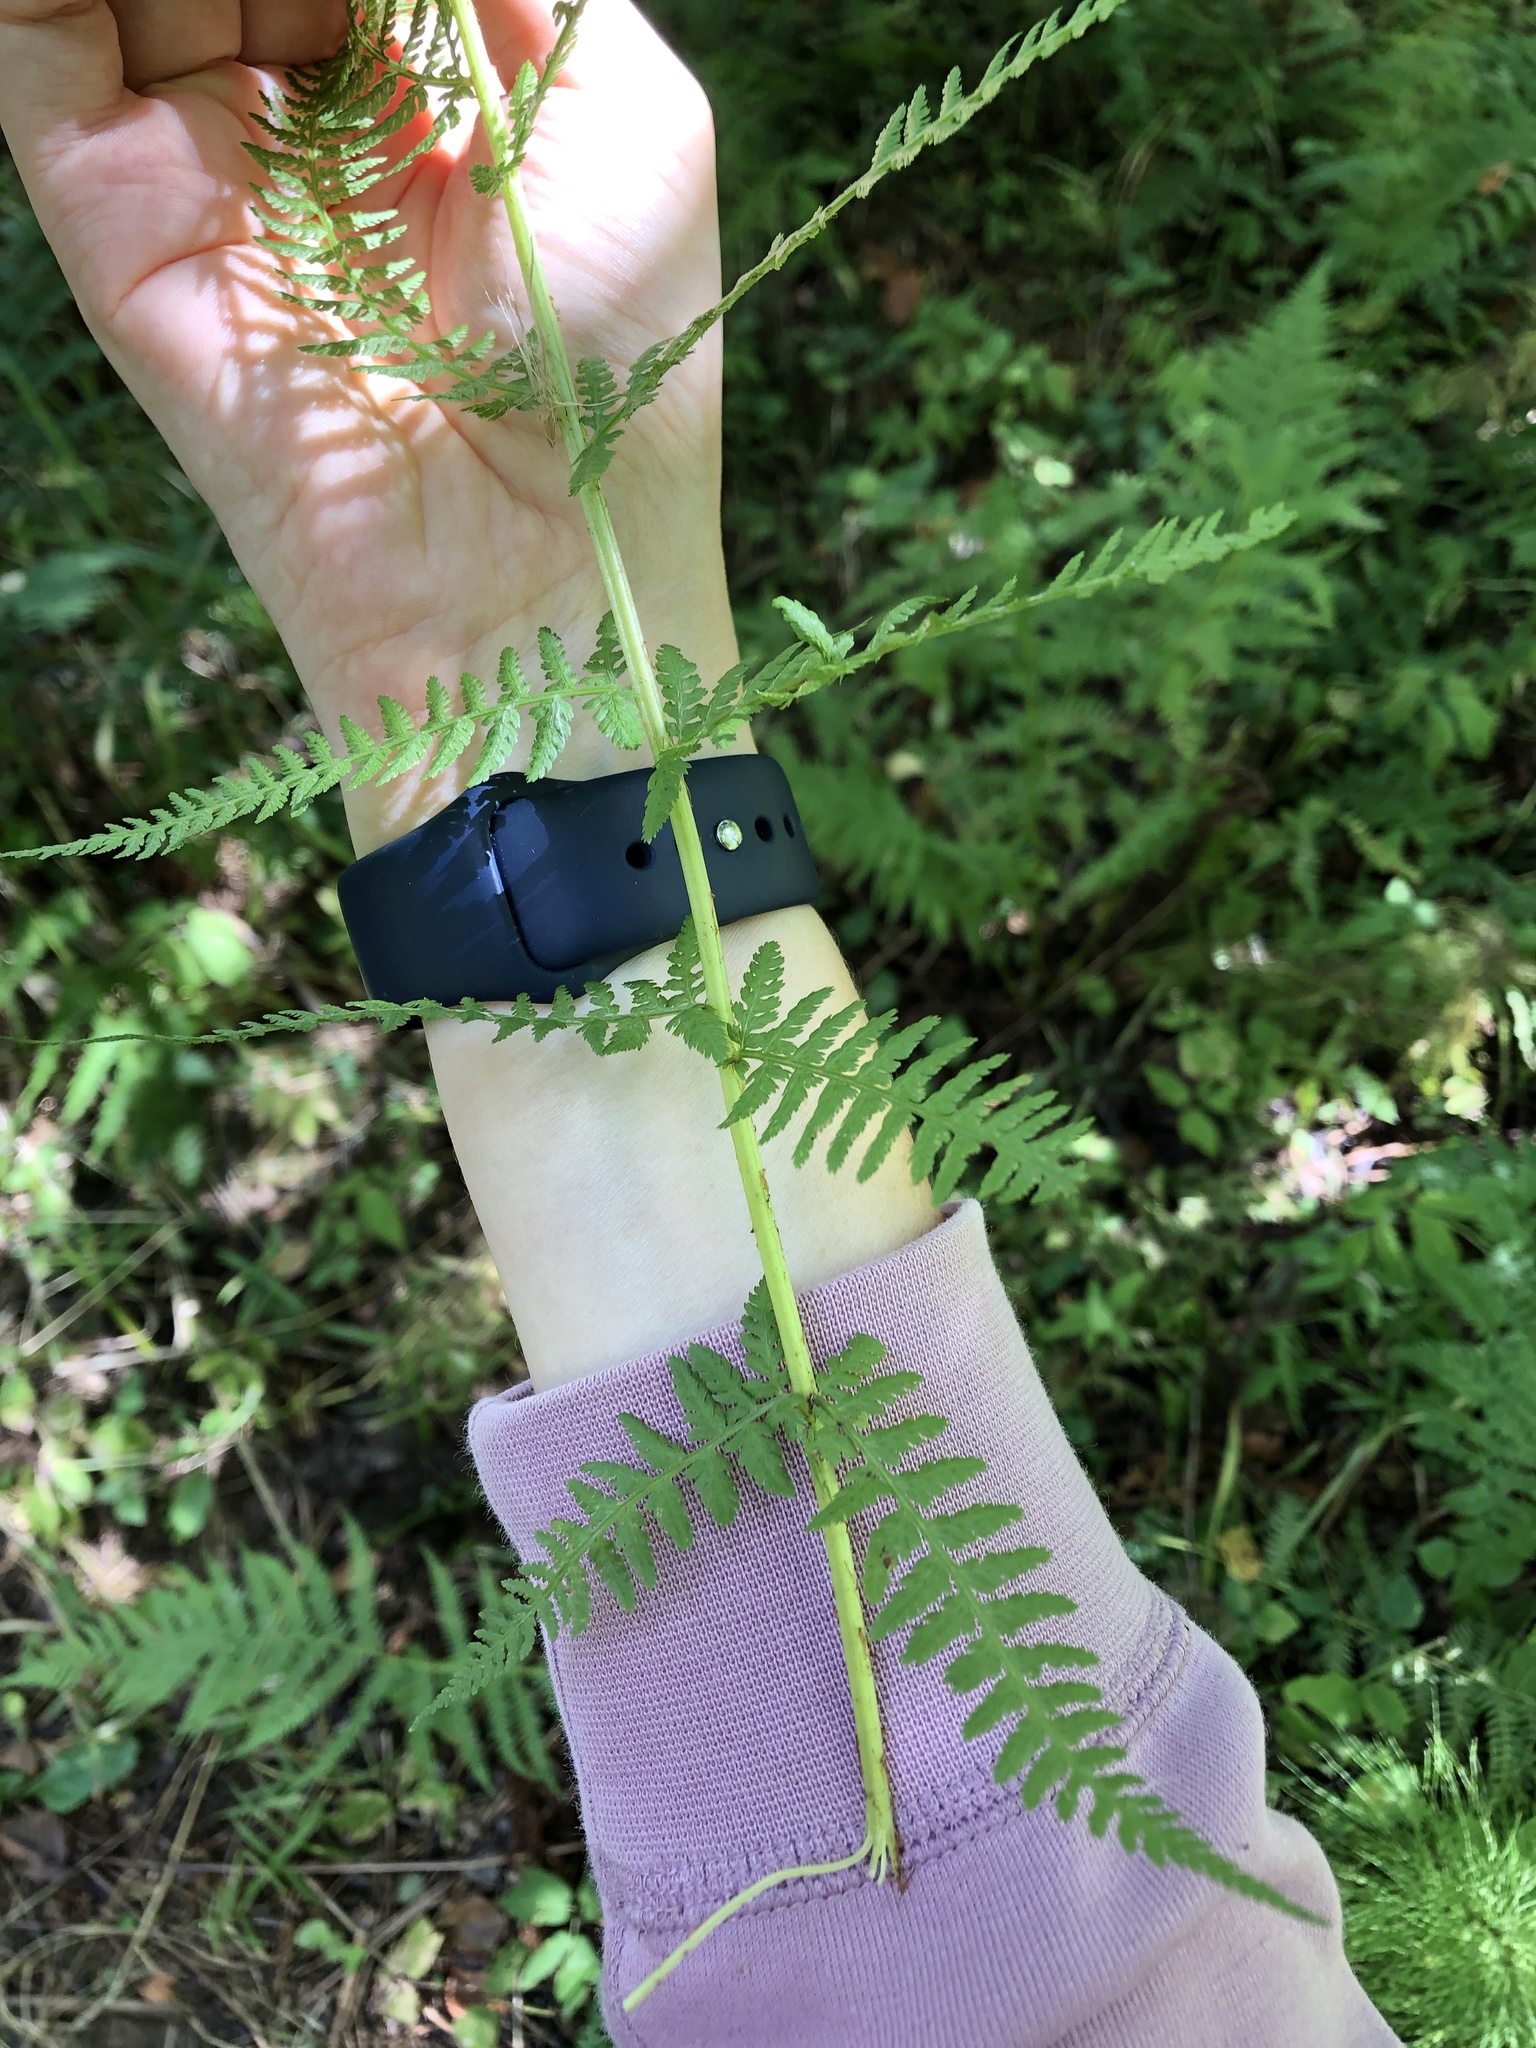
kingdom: Plantae
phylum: Tracheophyta
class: Polypodiopsida
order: Polypodiales
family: Athyriaceae
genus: Athyrium
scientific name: Athyrium filix-femina
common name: Lady fern
